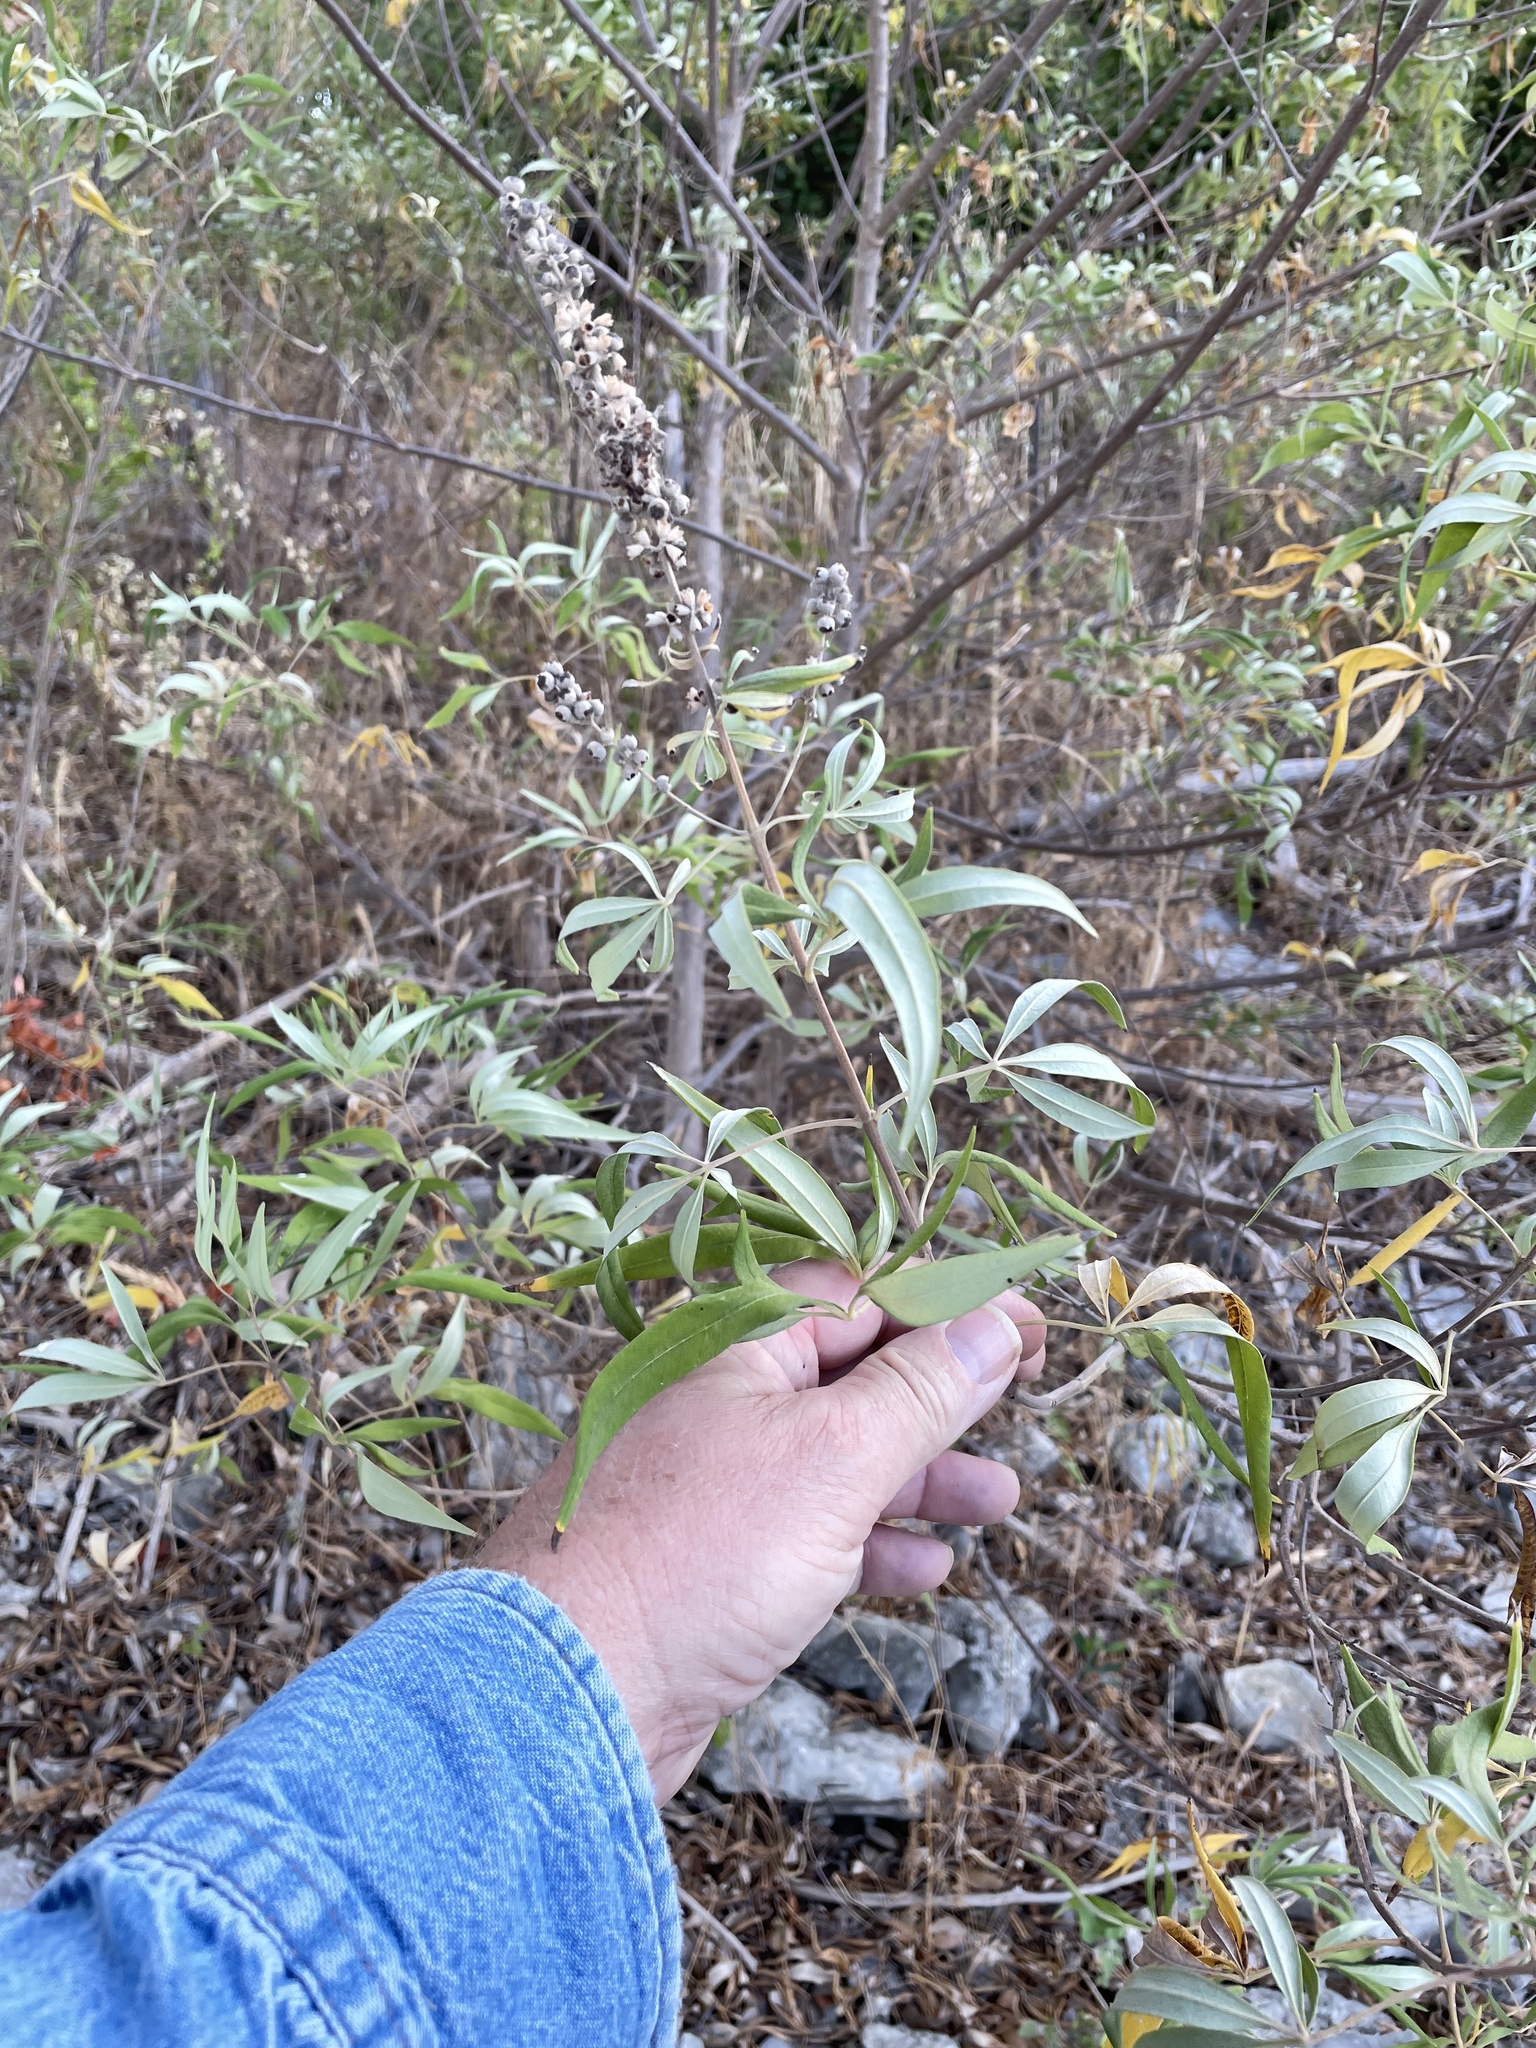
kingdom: Plantae
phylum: Tracheophyta
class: Magnoliopsida
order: Lamiales
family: Lamiaceae
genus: Vitex
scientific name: Vitex agnus-castus
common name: Chasteberry
